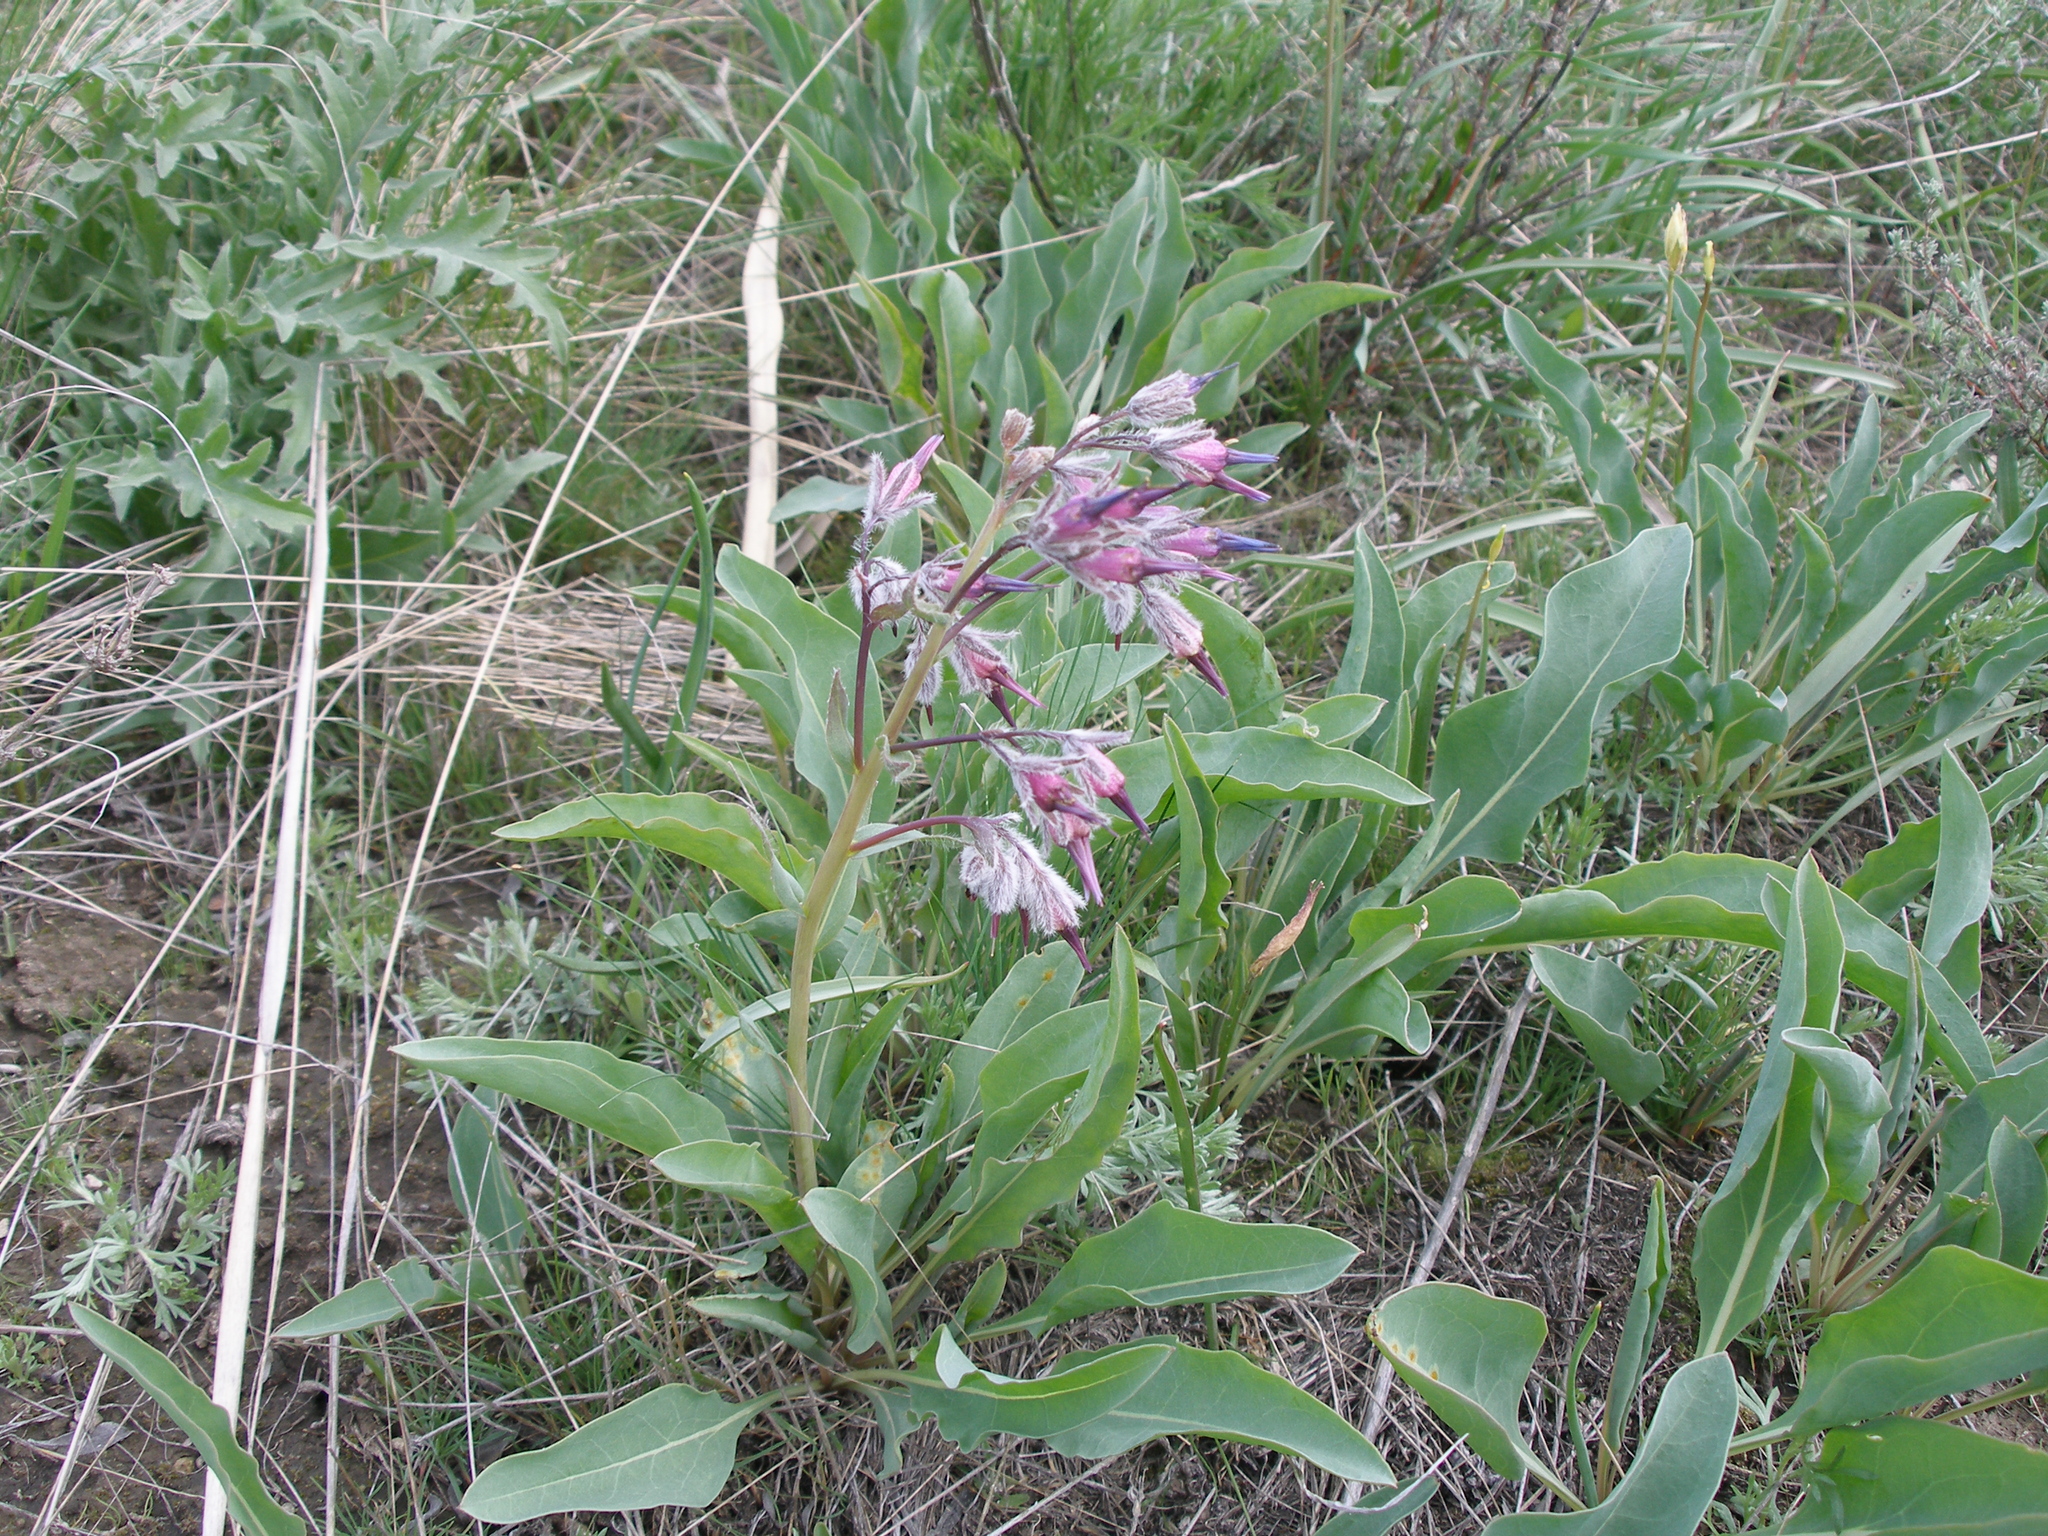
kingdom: Plantae
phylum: Tracheophyta
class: Magnoliopsida
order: Boraginales
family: Boraginaceae
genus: Rindera
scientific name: Rindera tetraspis
